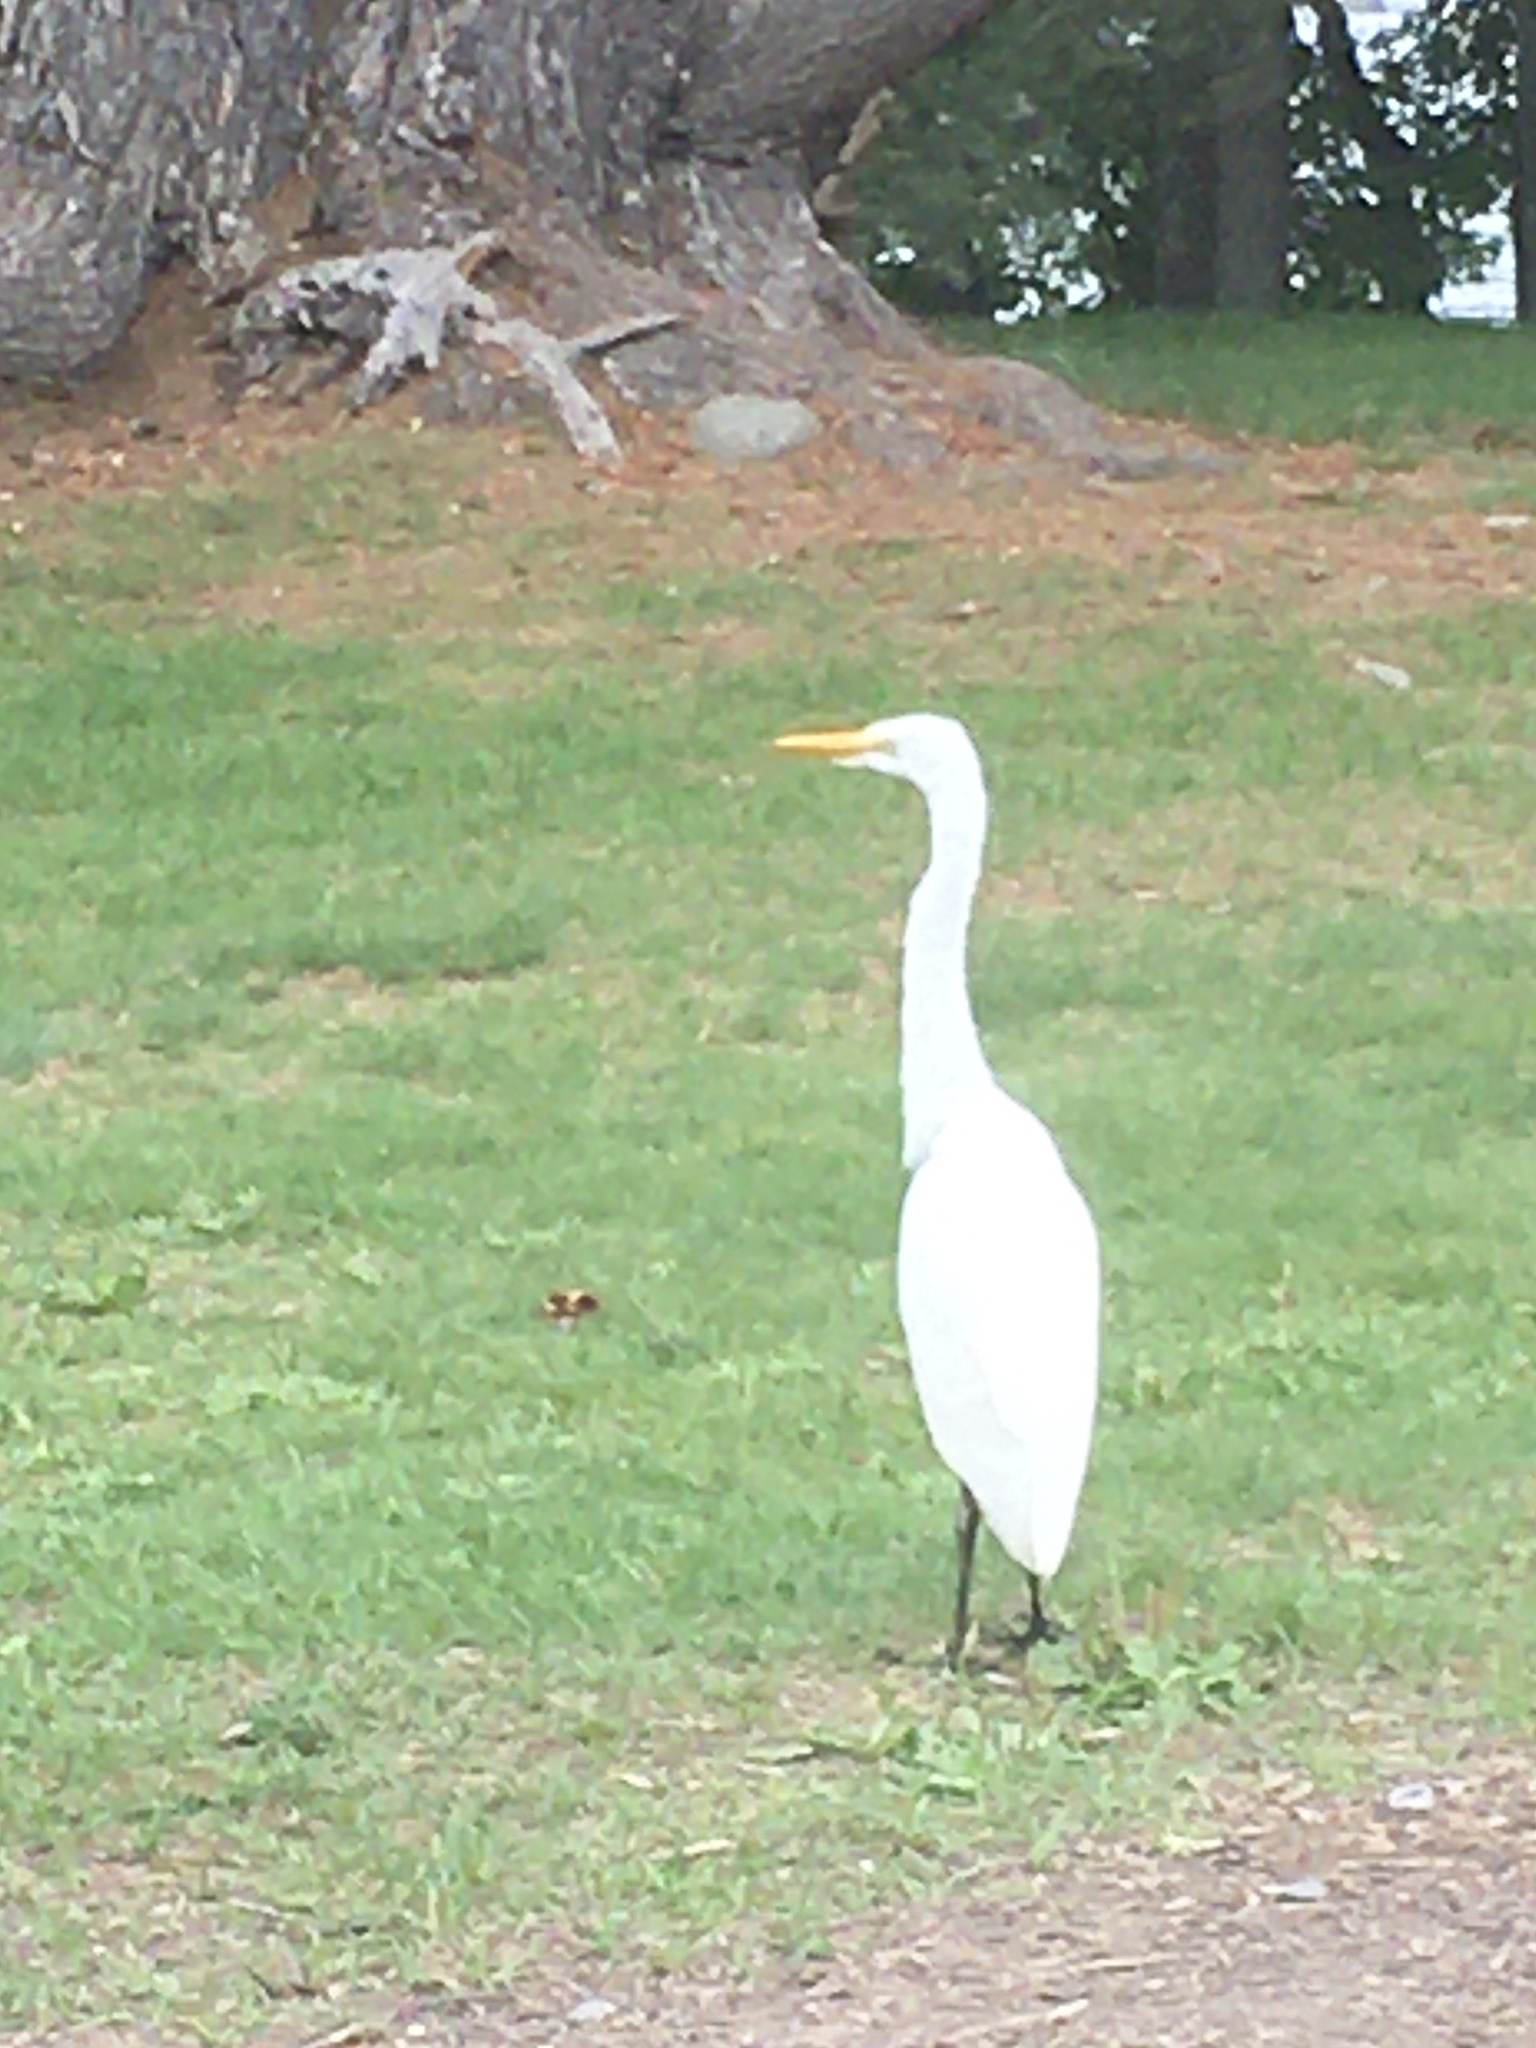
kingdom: Animalia
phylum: Chordata
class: Aves
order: Pelecaniformes
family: Ardeidae
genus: Ardea
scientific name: Ardea alba
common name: Great egret
